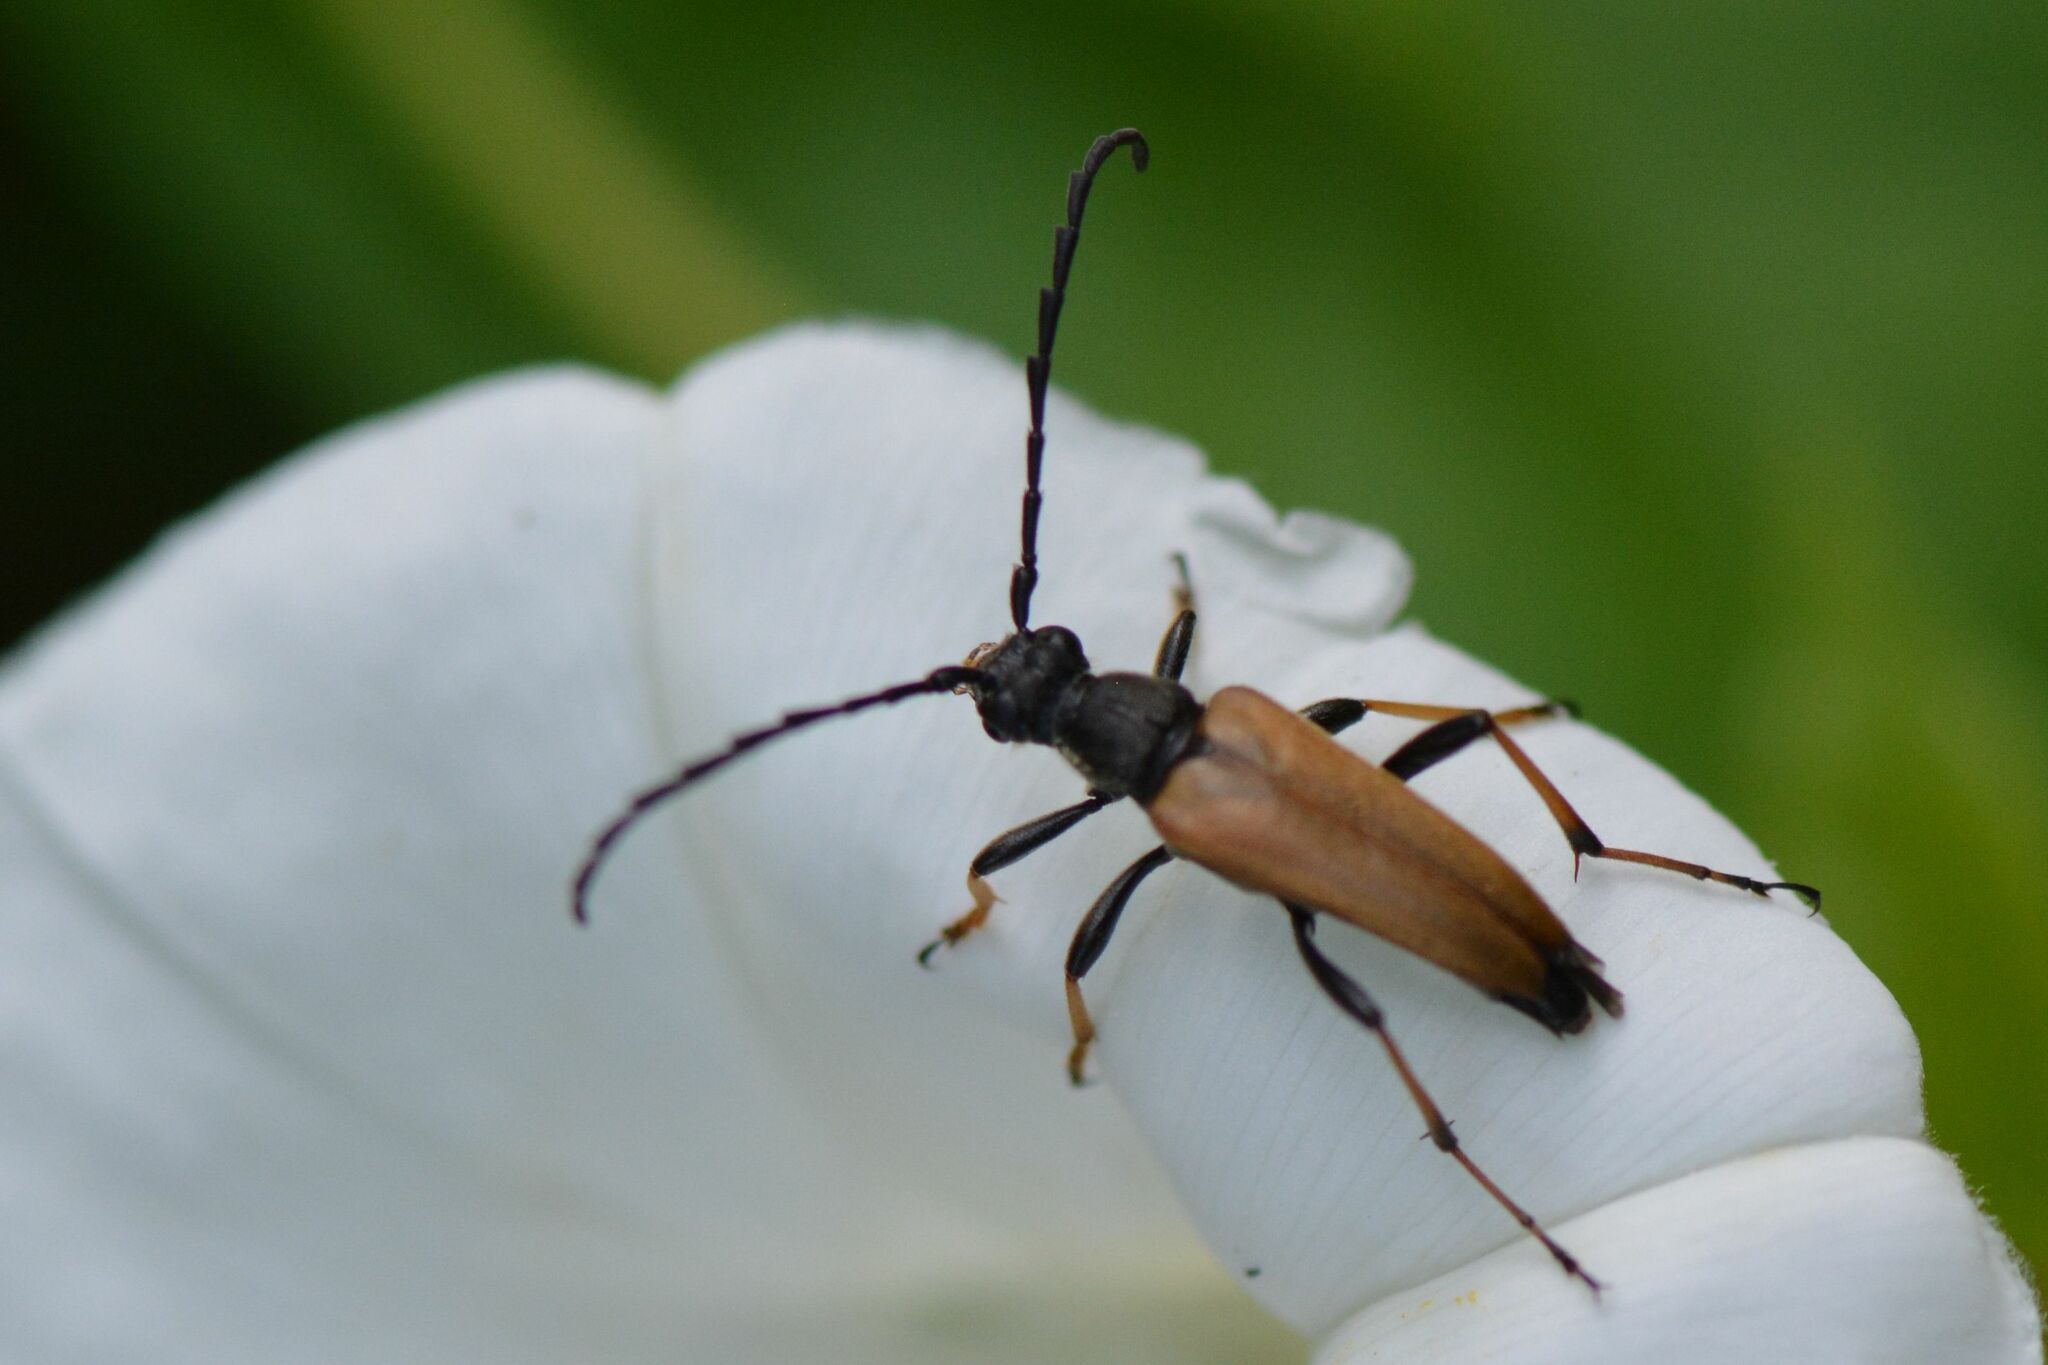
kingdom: Animalia
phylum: Arthropoda
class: Insecta
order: Coleoptera
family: Cerambycidae
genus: Stictoleptura
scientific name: Stictoleptura rubra
